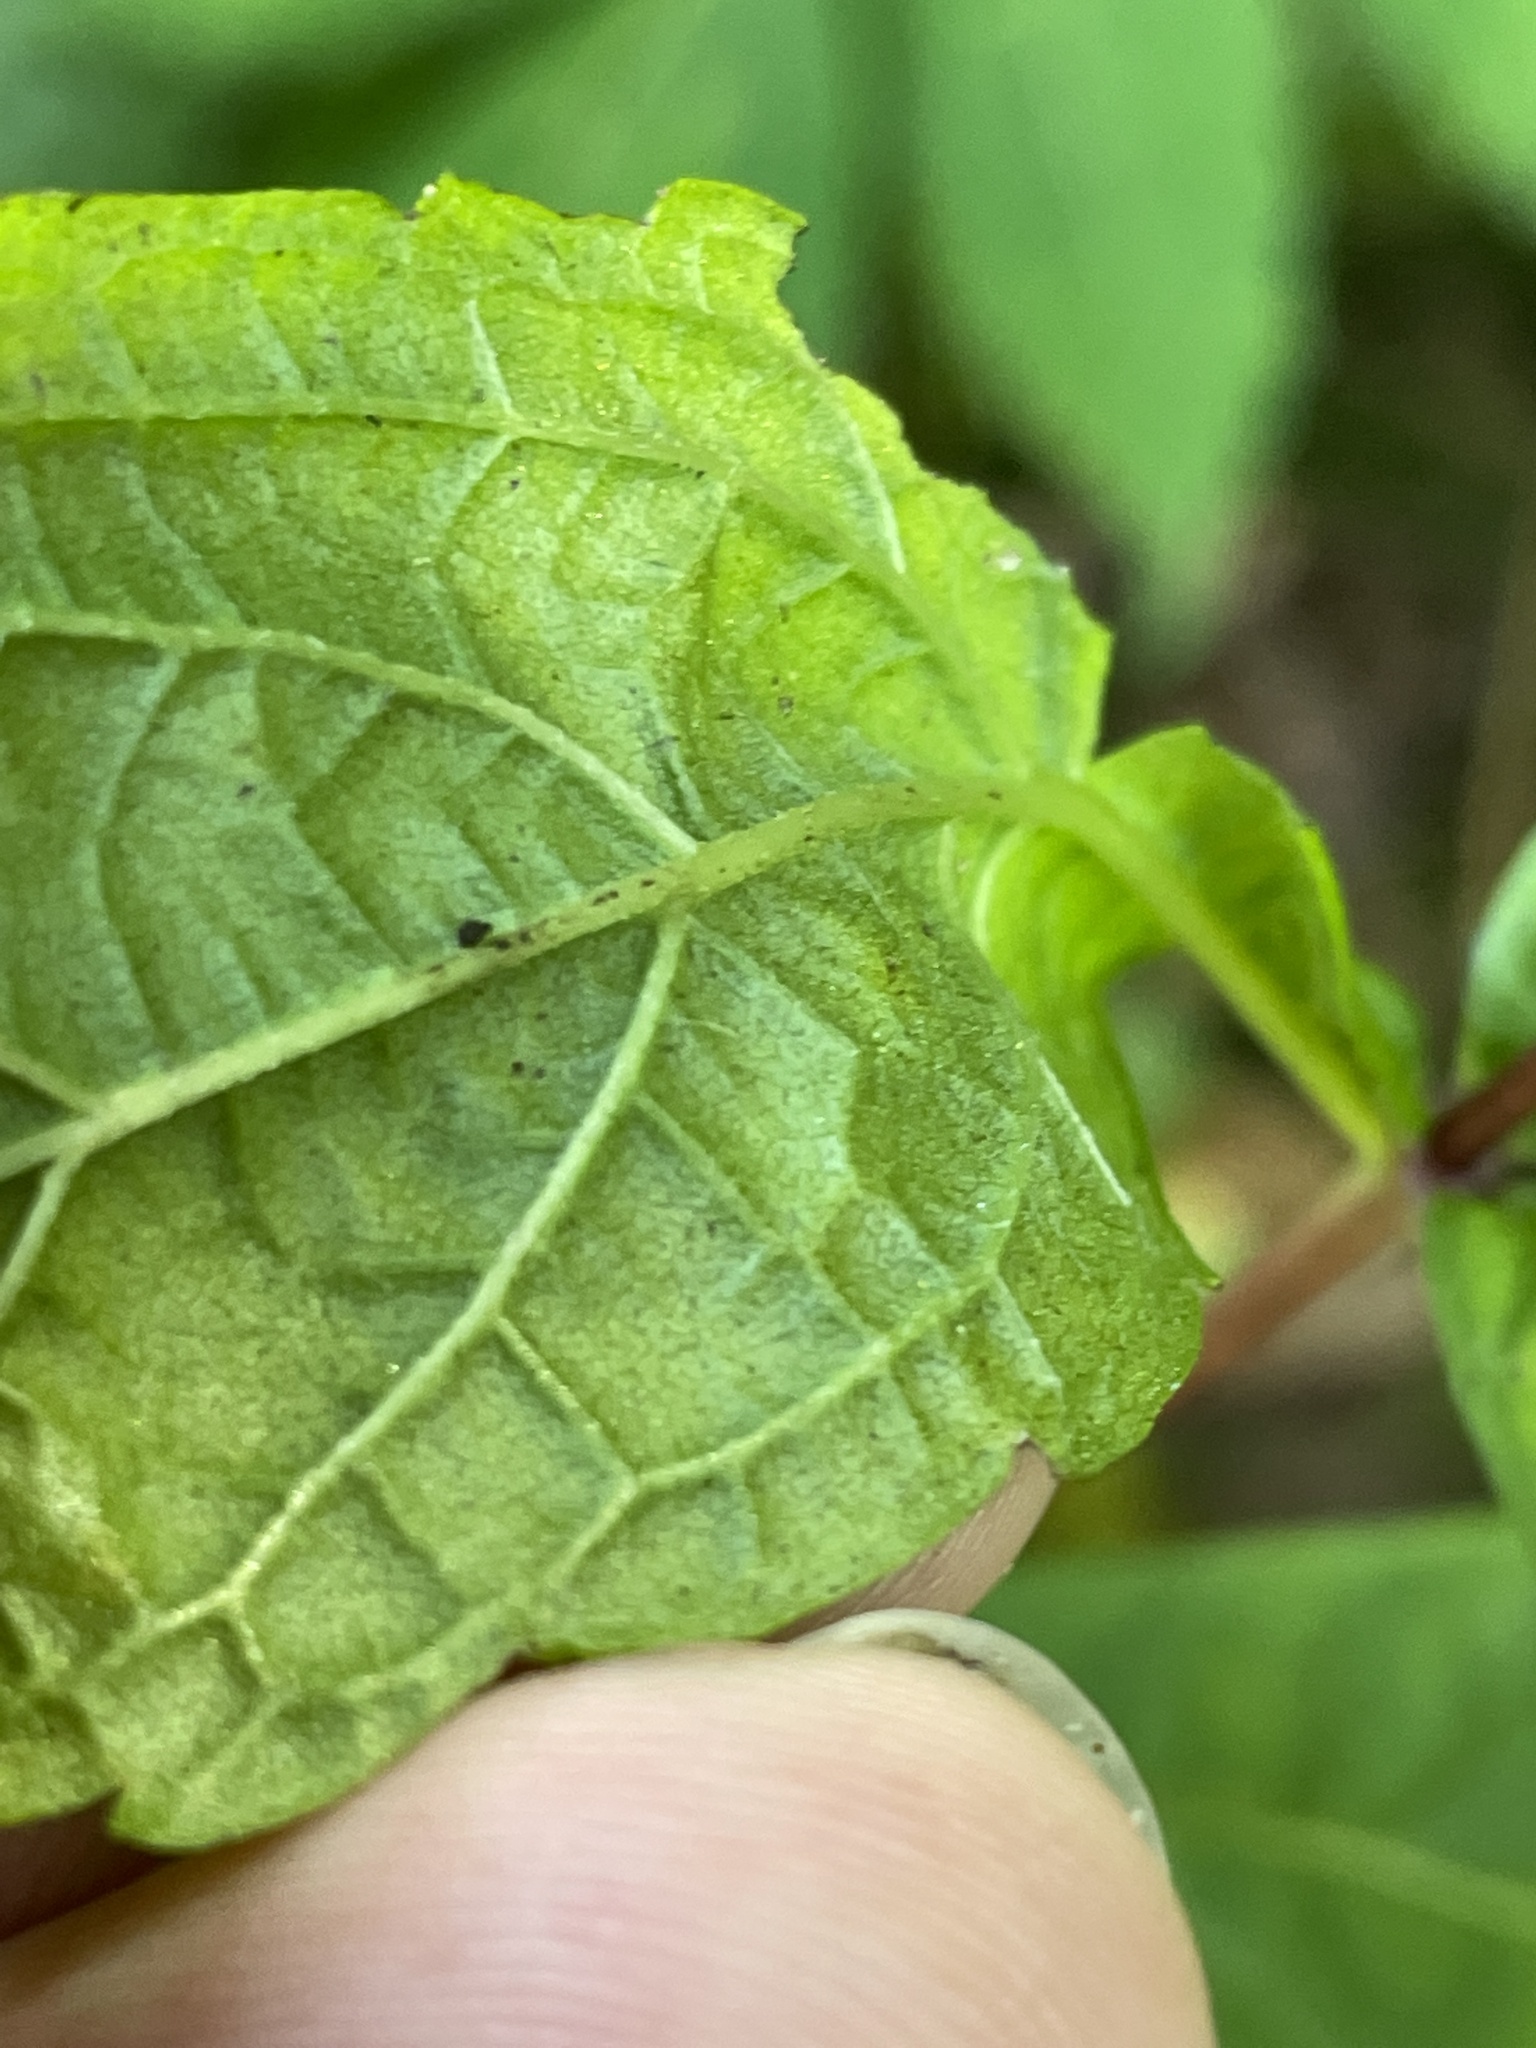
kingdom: Plantae
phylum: Tracheophyta
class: Magnoliopsida
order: Asterales
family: Asteraceae
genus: Eutrochium
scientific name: Eutrochium steelei
